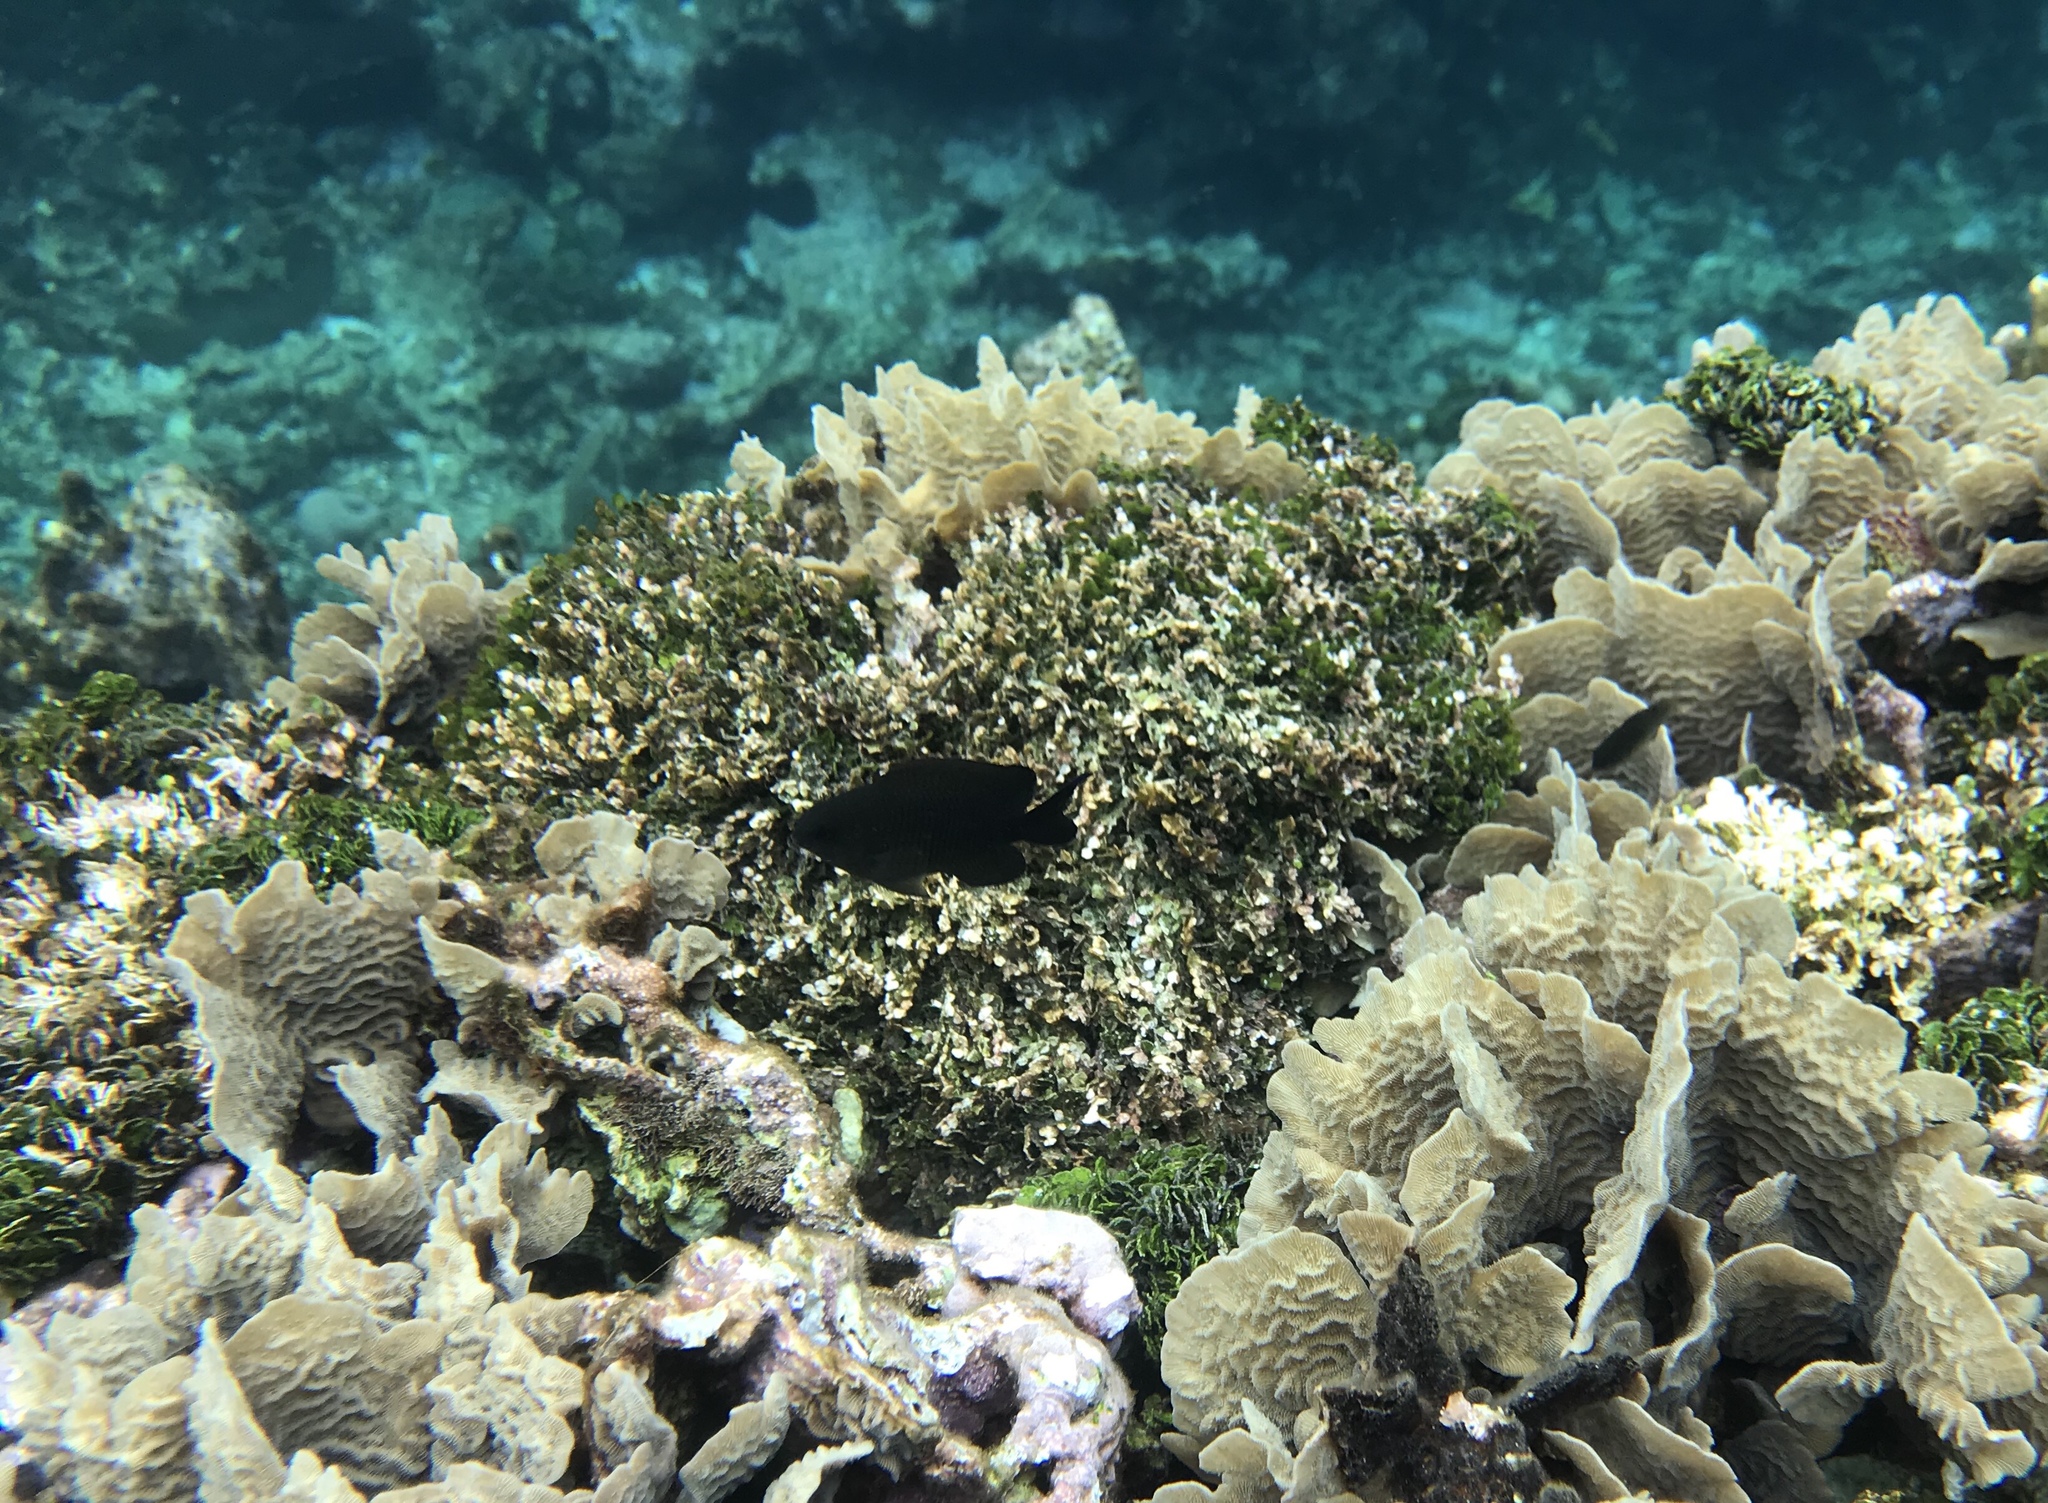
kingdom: Animalia
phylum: Chordata
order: Perciformes
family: Pomacentridae
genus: Stegastes
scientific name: Stegastes adustus
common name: Dusky damselfish
